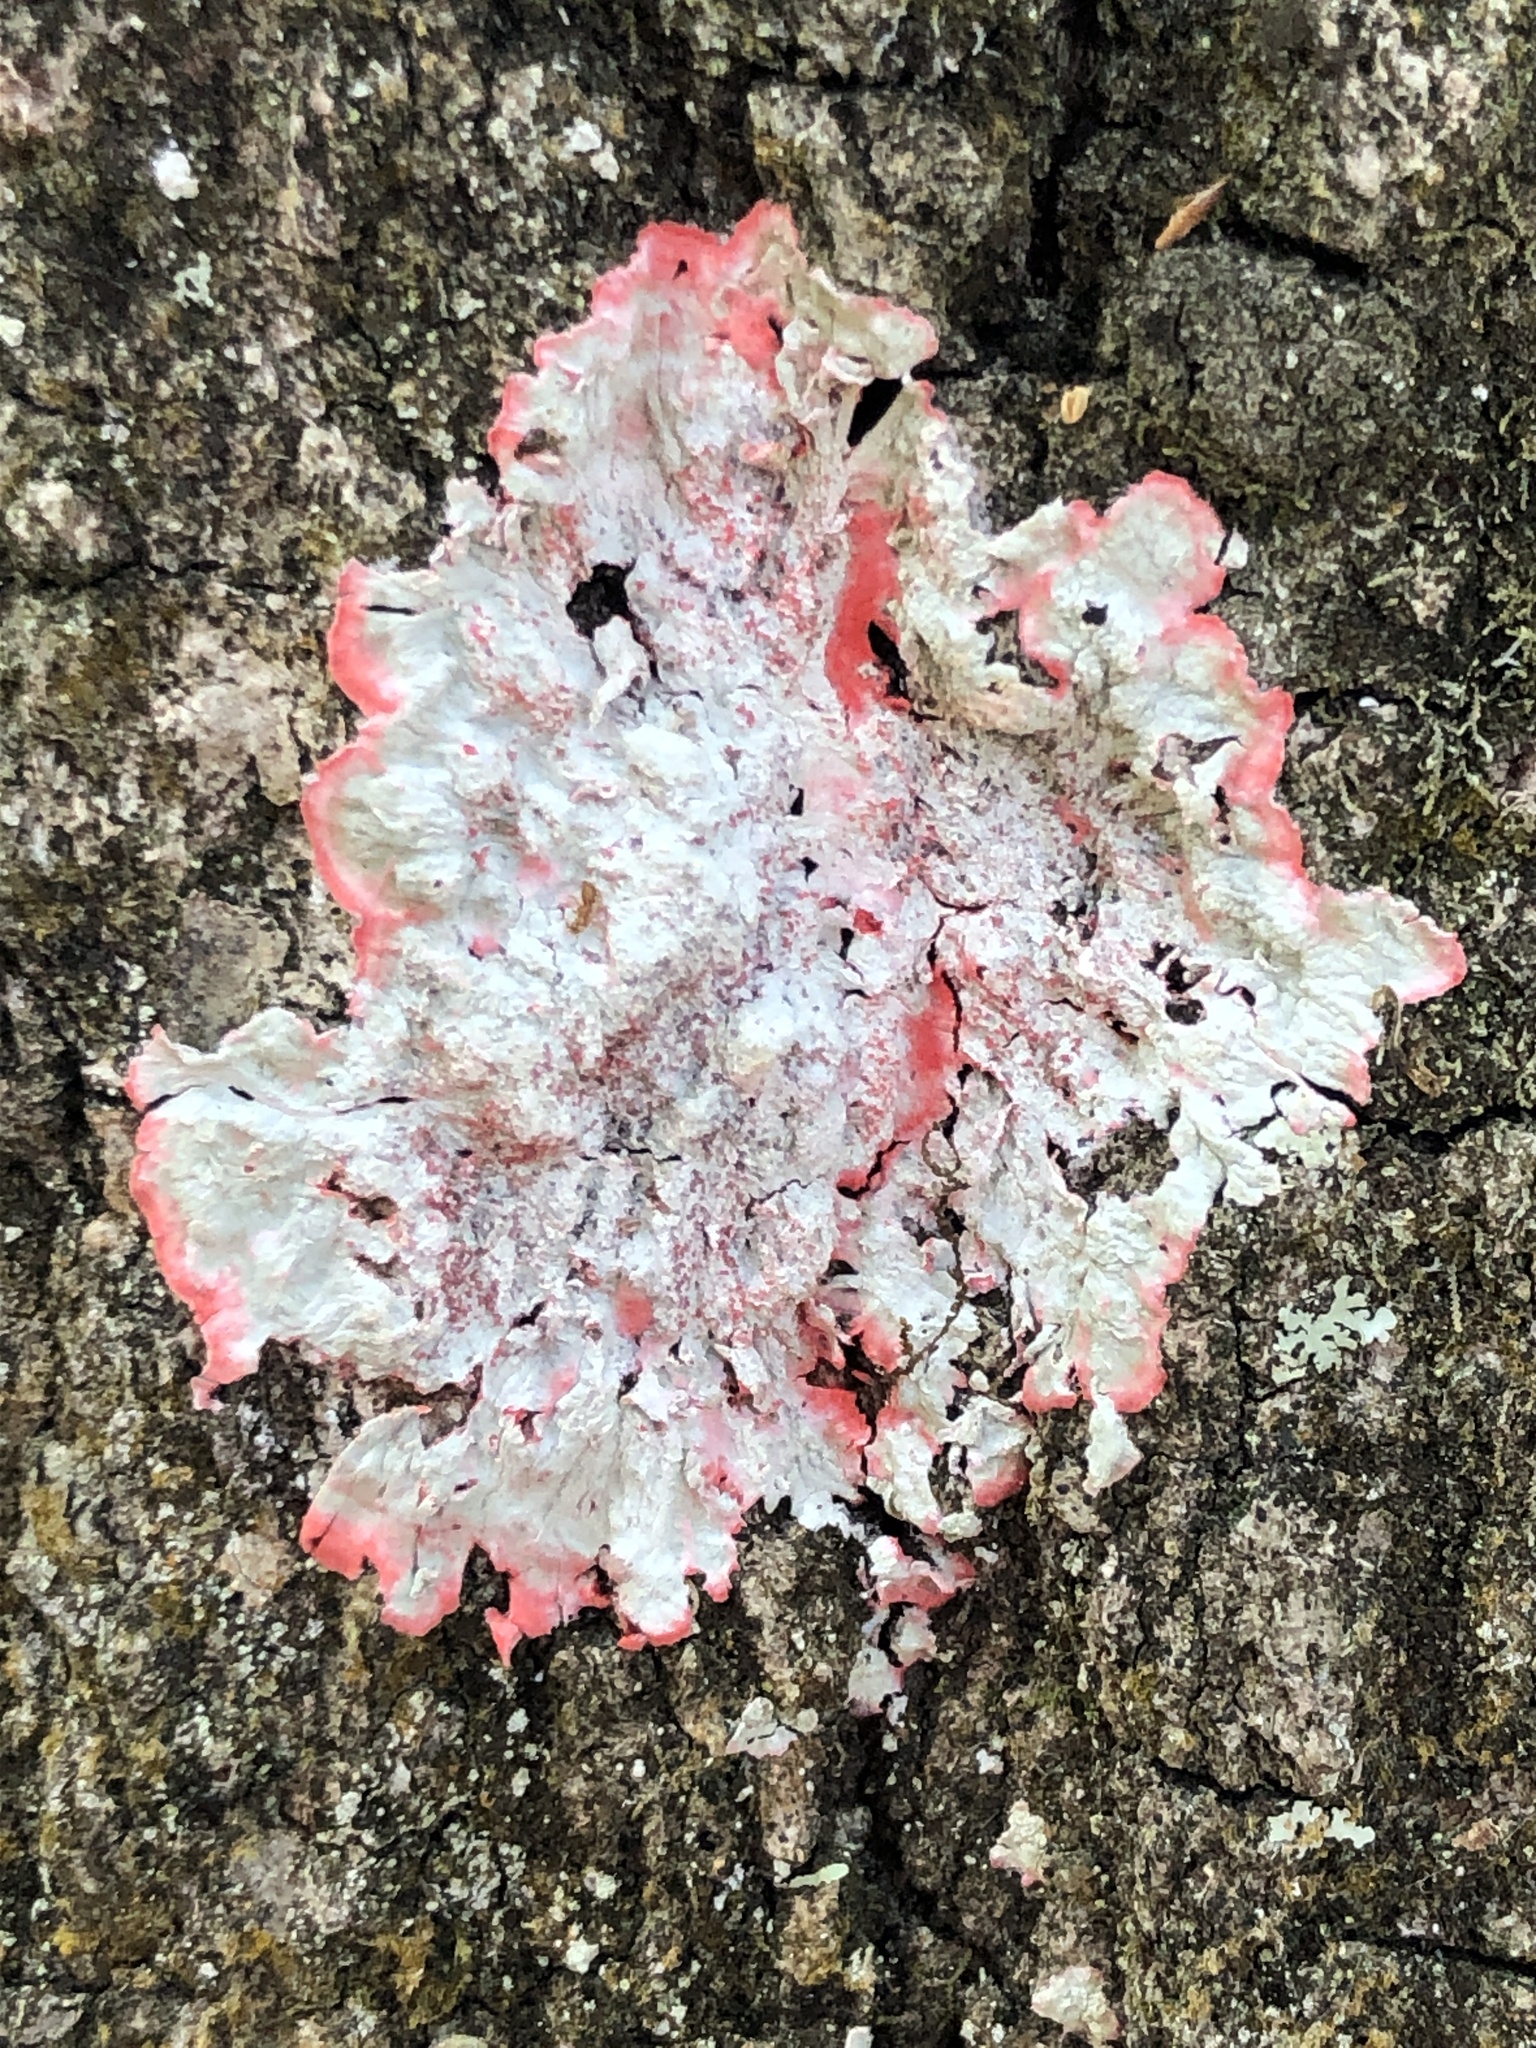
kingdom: Fungi
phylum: Ascomycota
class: Arthoniomycetes
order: Arthoniales
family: Arthoniaceae
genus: Herpothallon
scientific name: Herpothallon rubrocinctum
